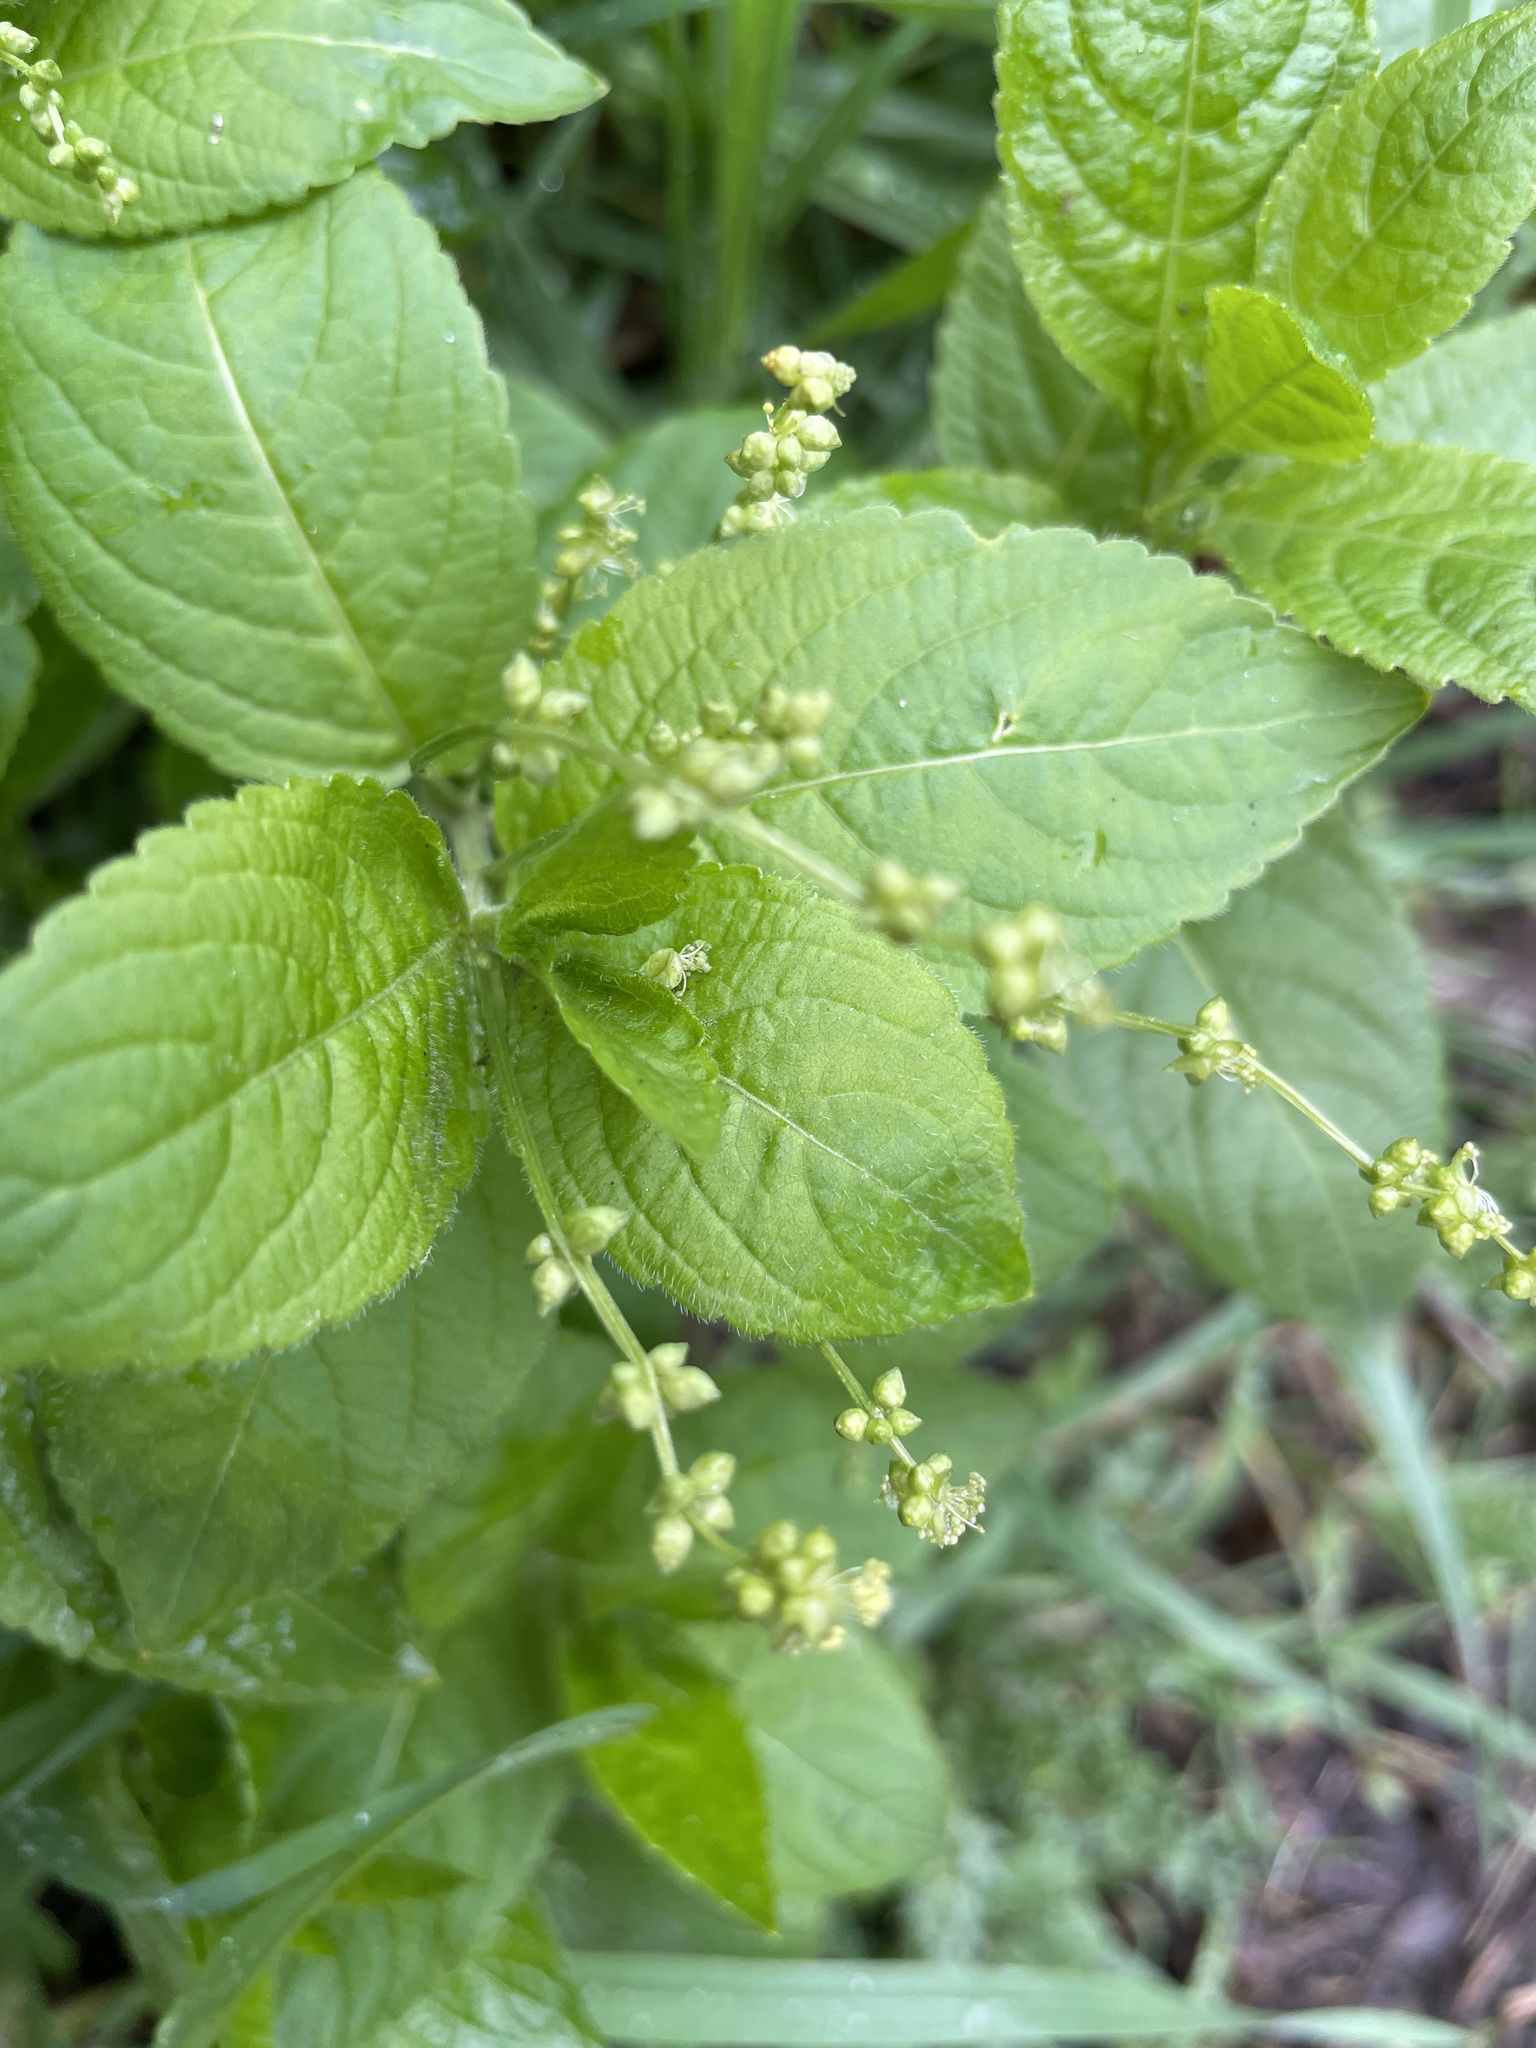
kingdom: Plantae
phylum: Tracheophyta
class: Magnoliopsida
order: Malpighiales
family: Euphorbiaceae
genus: Mercurialis
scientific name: Mercurialis perennis
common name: Dog mercury
